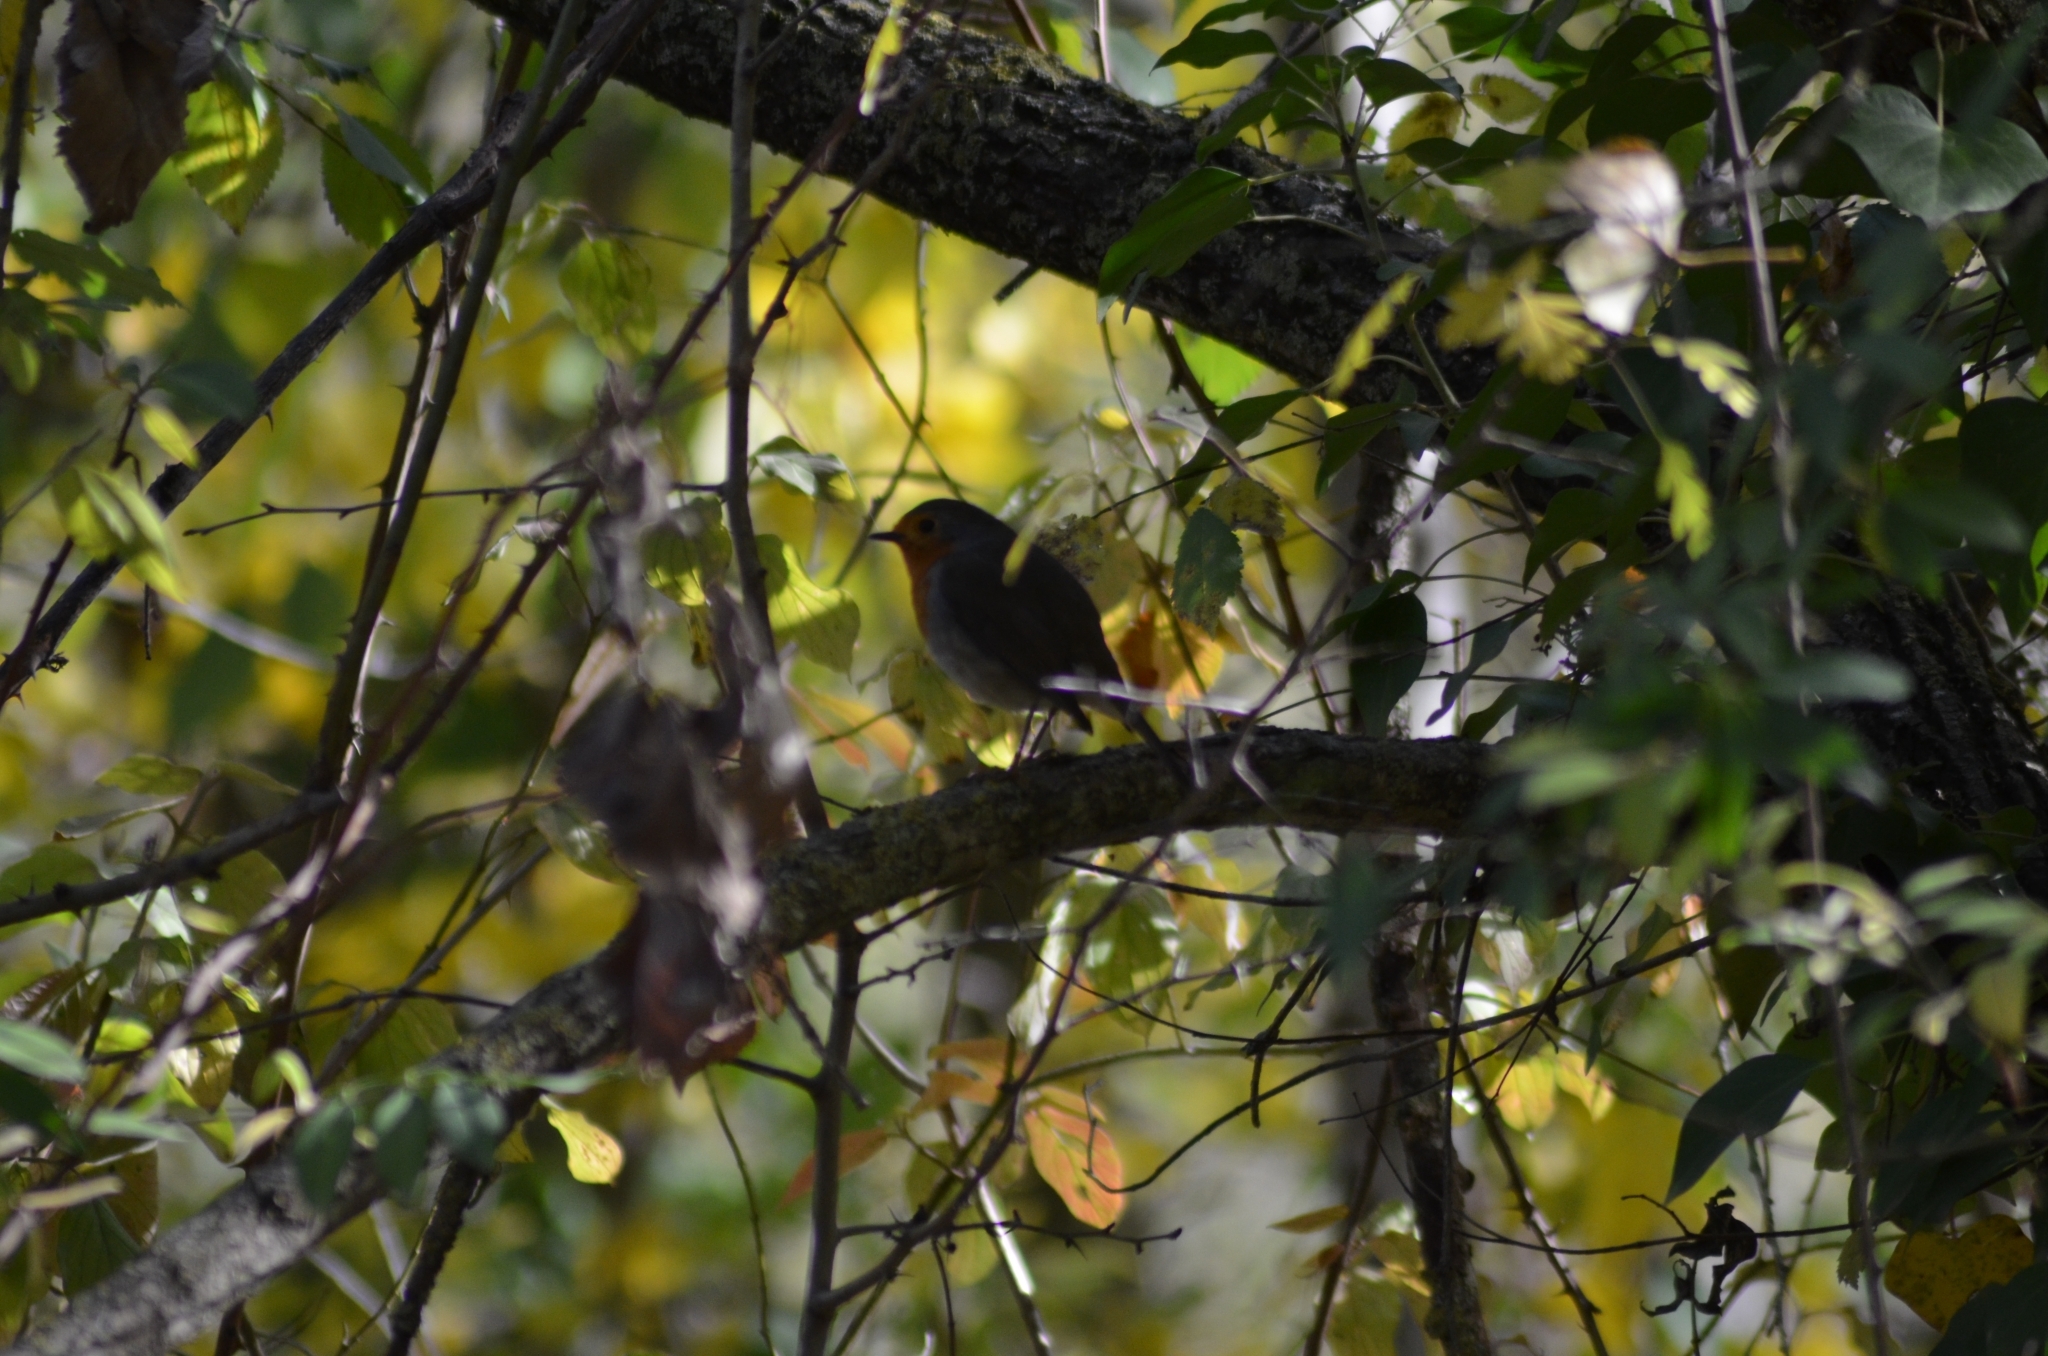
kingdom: Animalia
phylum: Chordata
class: Aves
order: Passeriformes
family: Muscicapidae
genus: Erithacus
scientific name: Erithacus rubecula
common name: European robin
